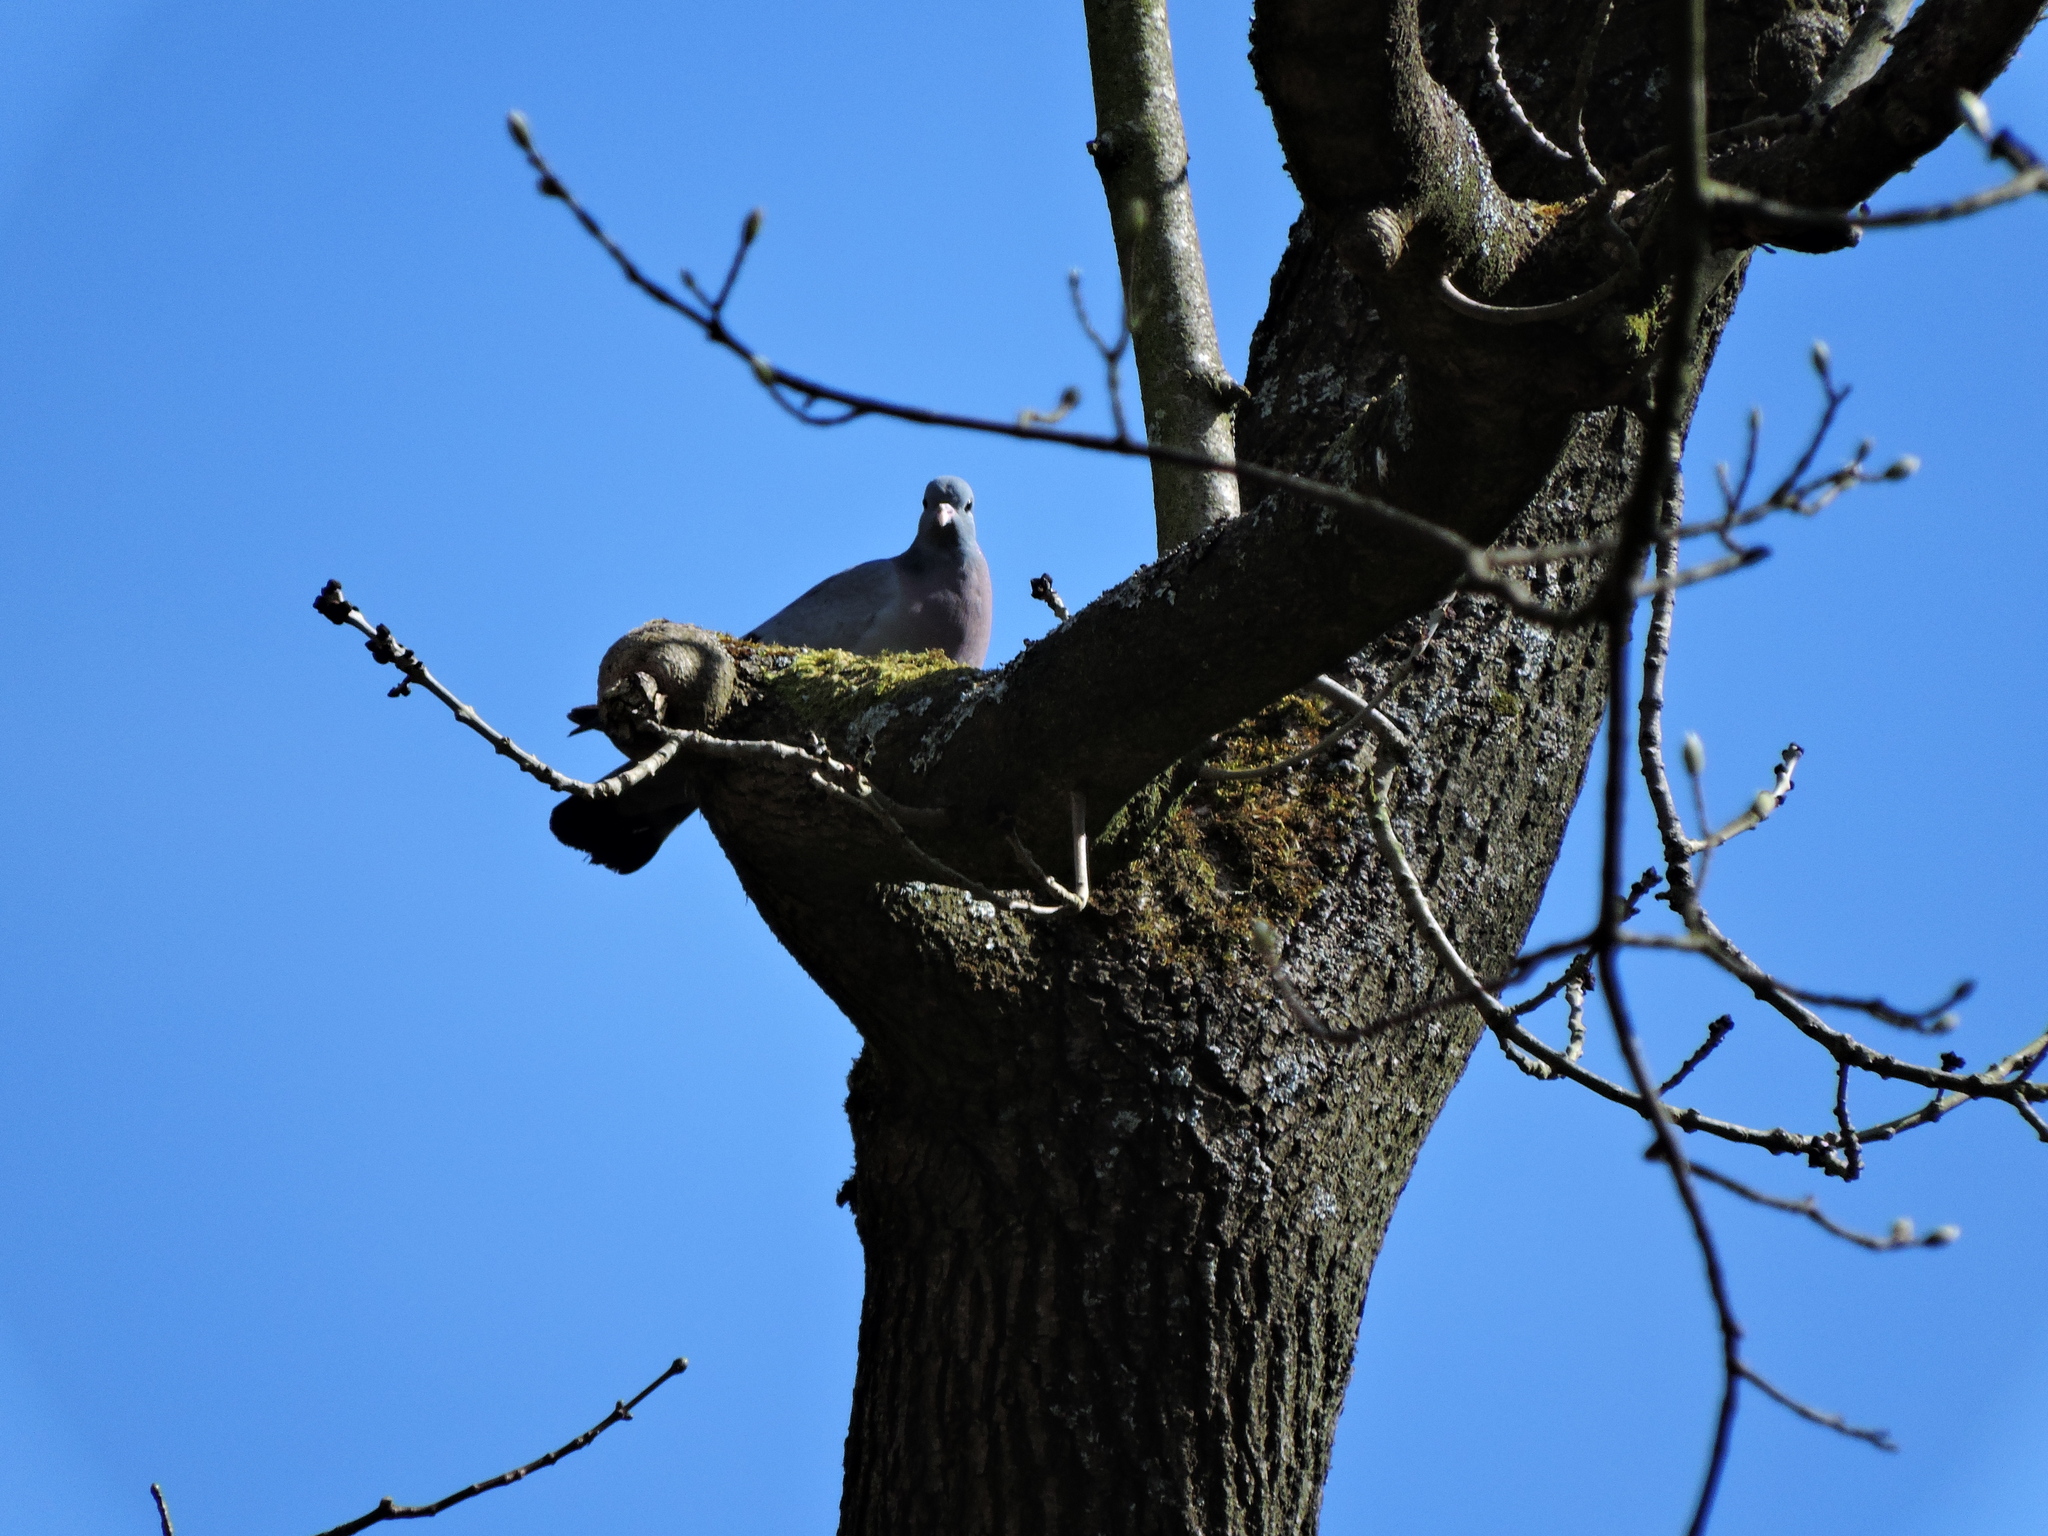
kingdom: Animalia
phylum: Chordata
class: Aves
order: Columbiformes
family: Columbidae
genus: Columba
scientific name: Columba oenas
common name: Stock dove
